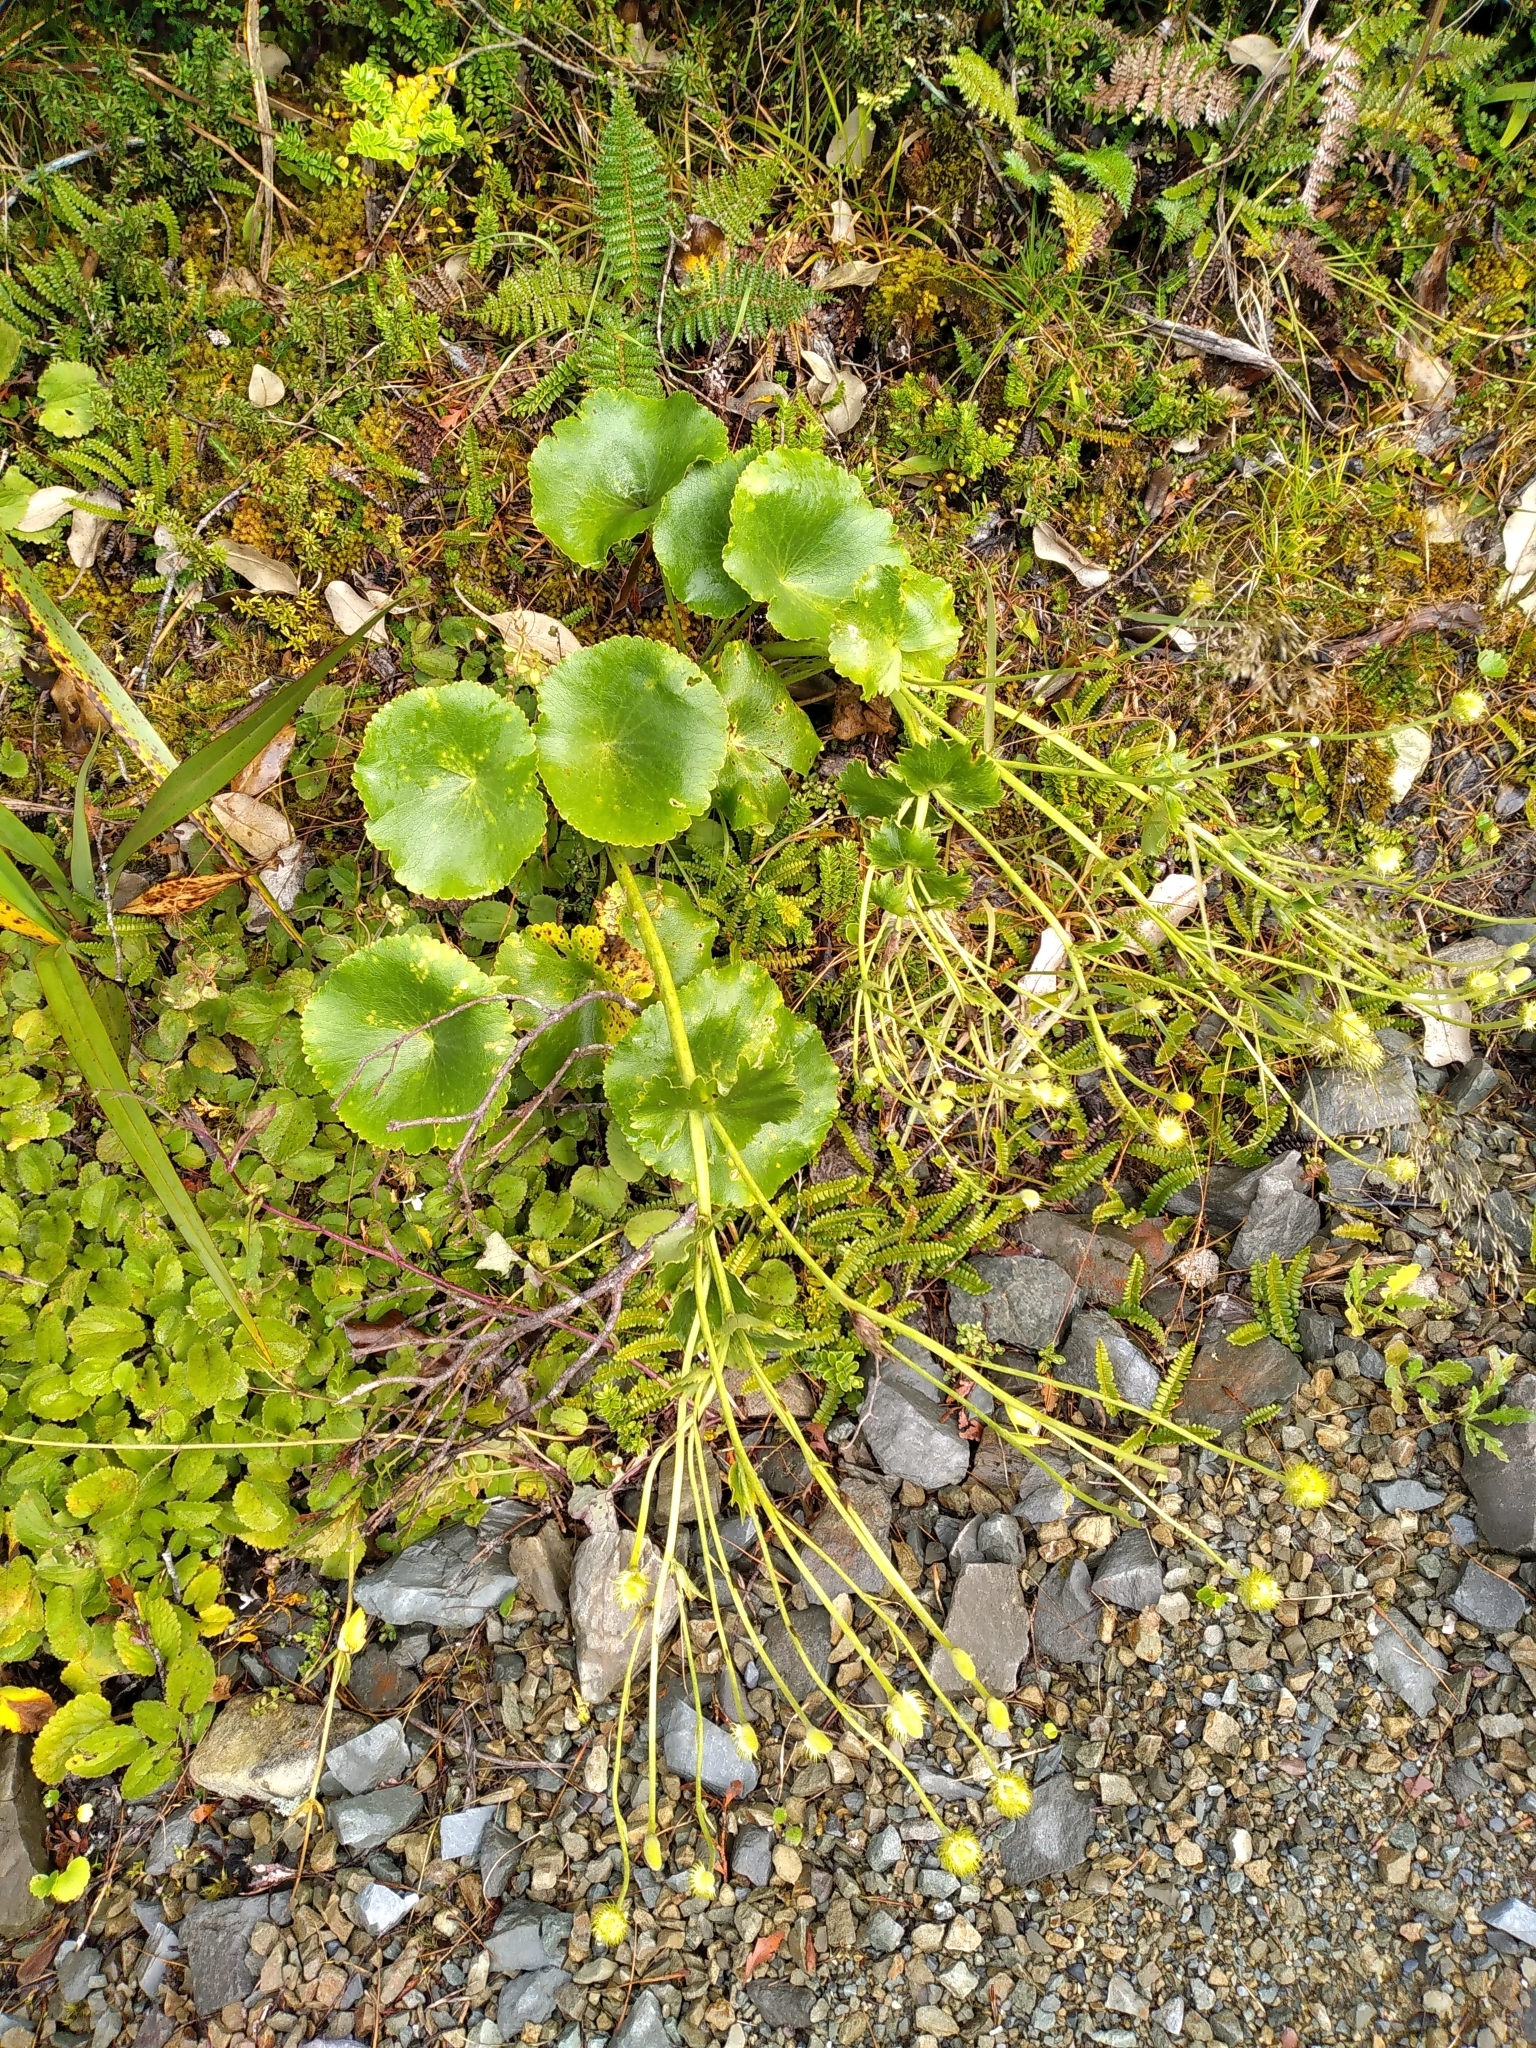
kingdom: Plantae
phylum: Tracheophyta
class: Magnoliopsida
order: Ranunculales
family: Ranunculaceae
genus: Ranunculus
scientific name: Ranunculus lyallii
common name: Mountain-lily
